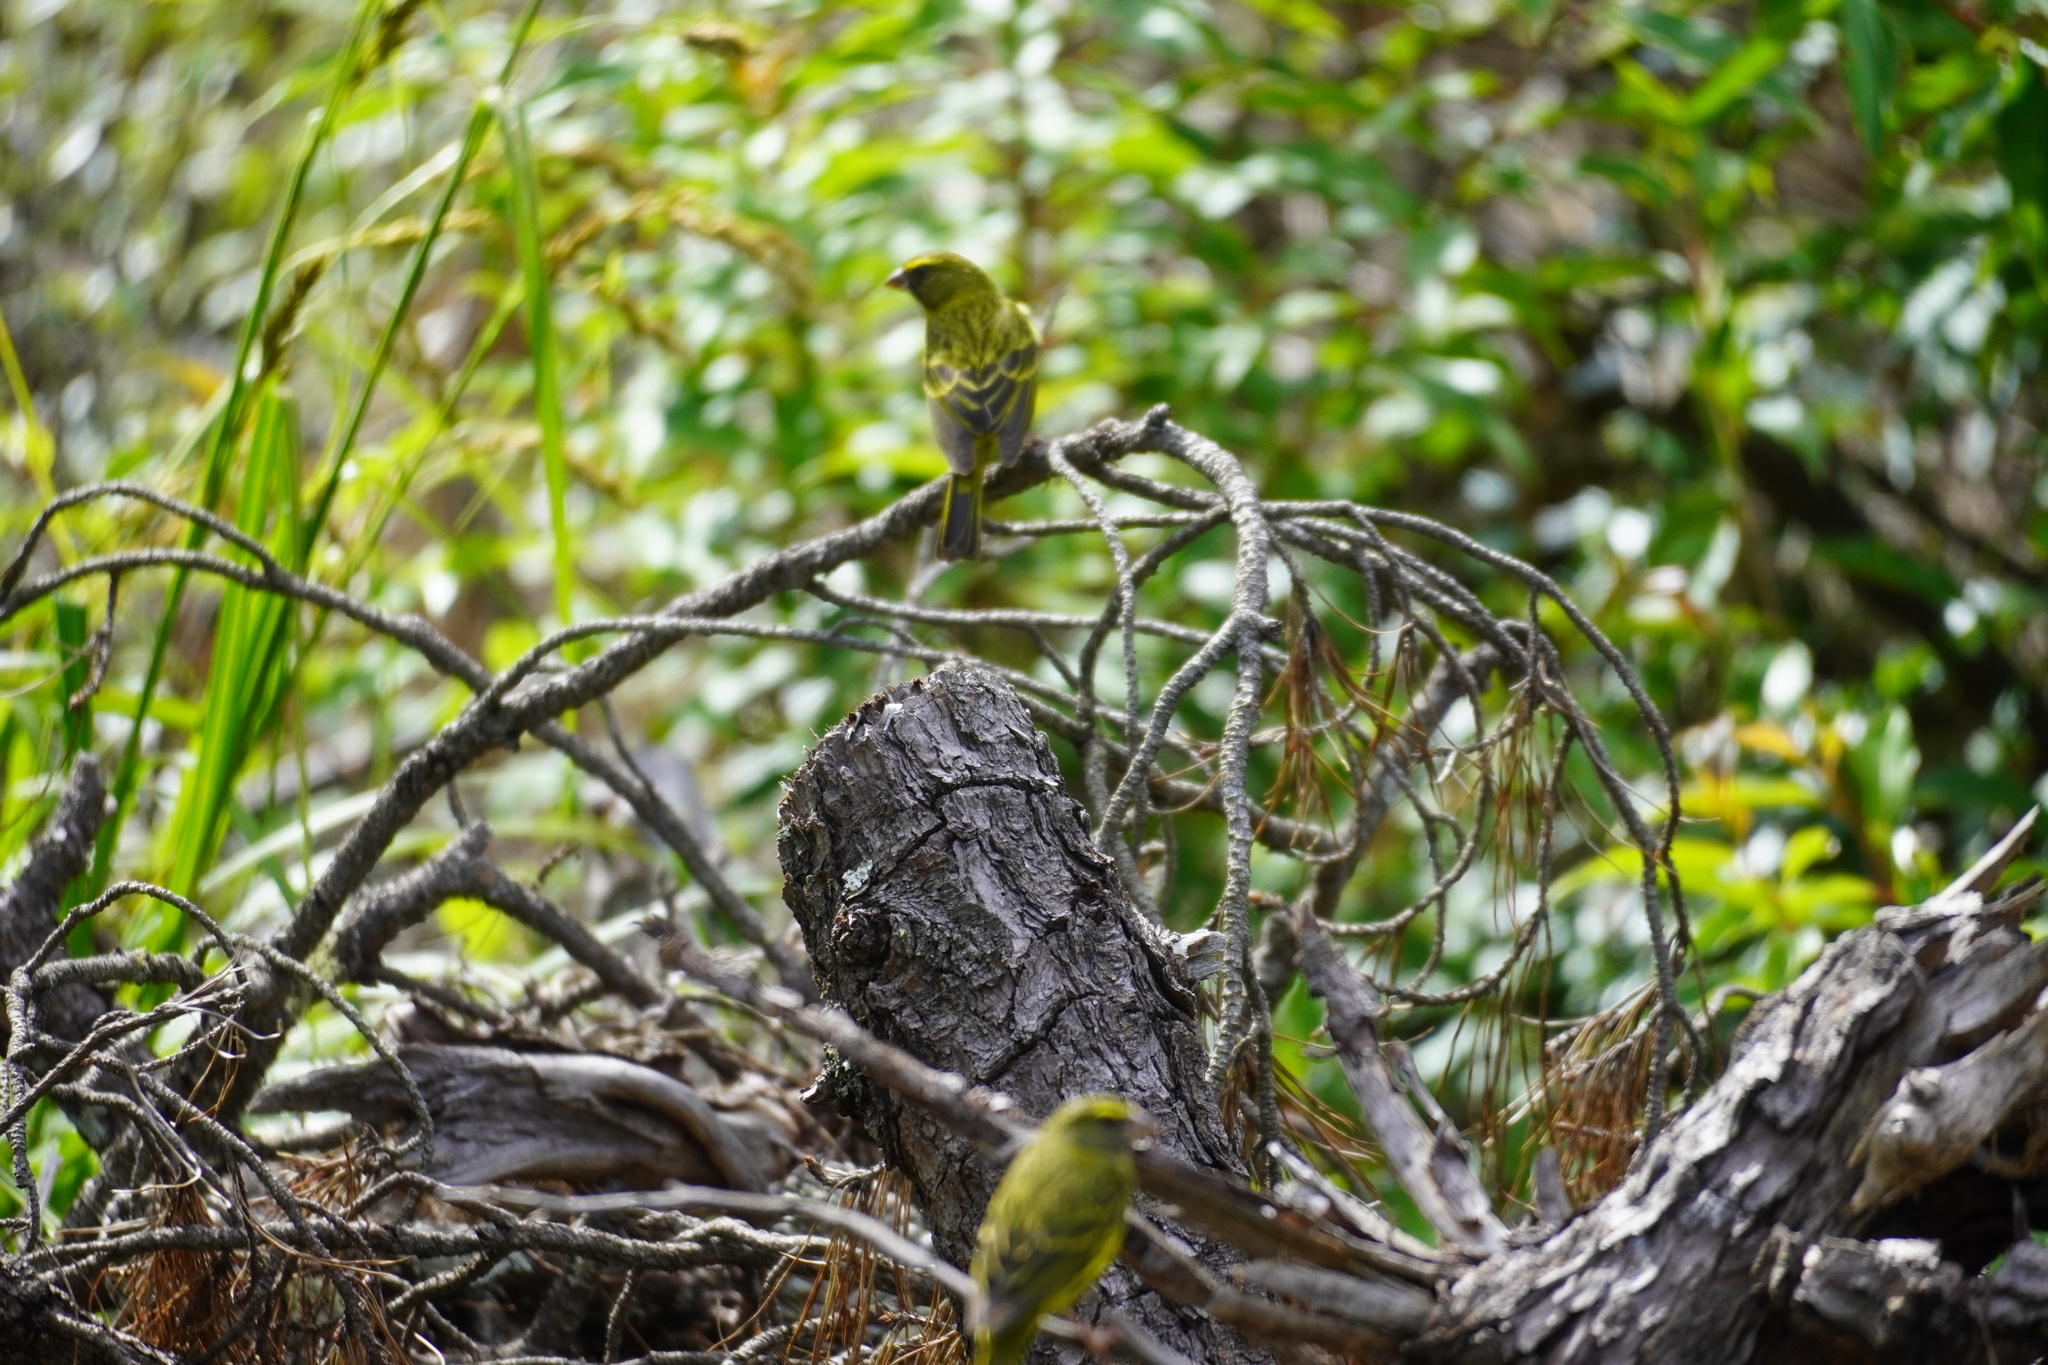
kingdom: Animalia
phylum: Chordata
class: Aves
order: Passeriformes
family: Fringillidae
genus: Crithagra
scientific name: Crithagra scotops
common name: Forest canary
